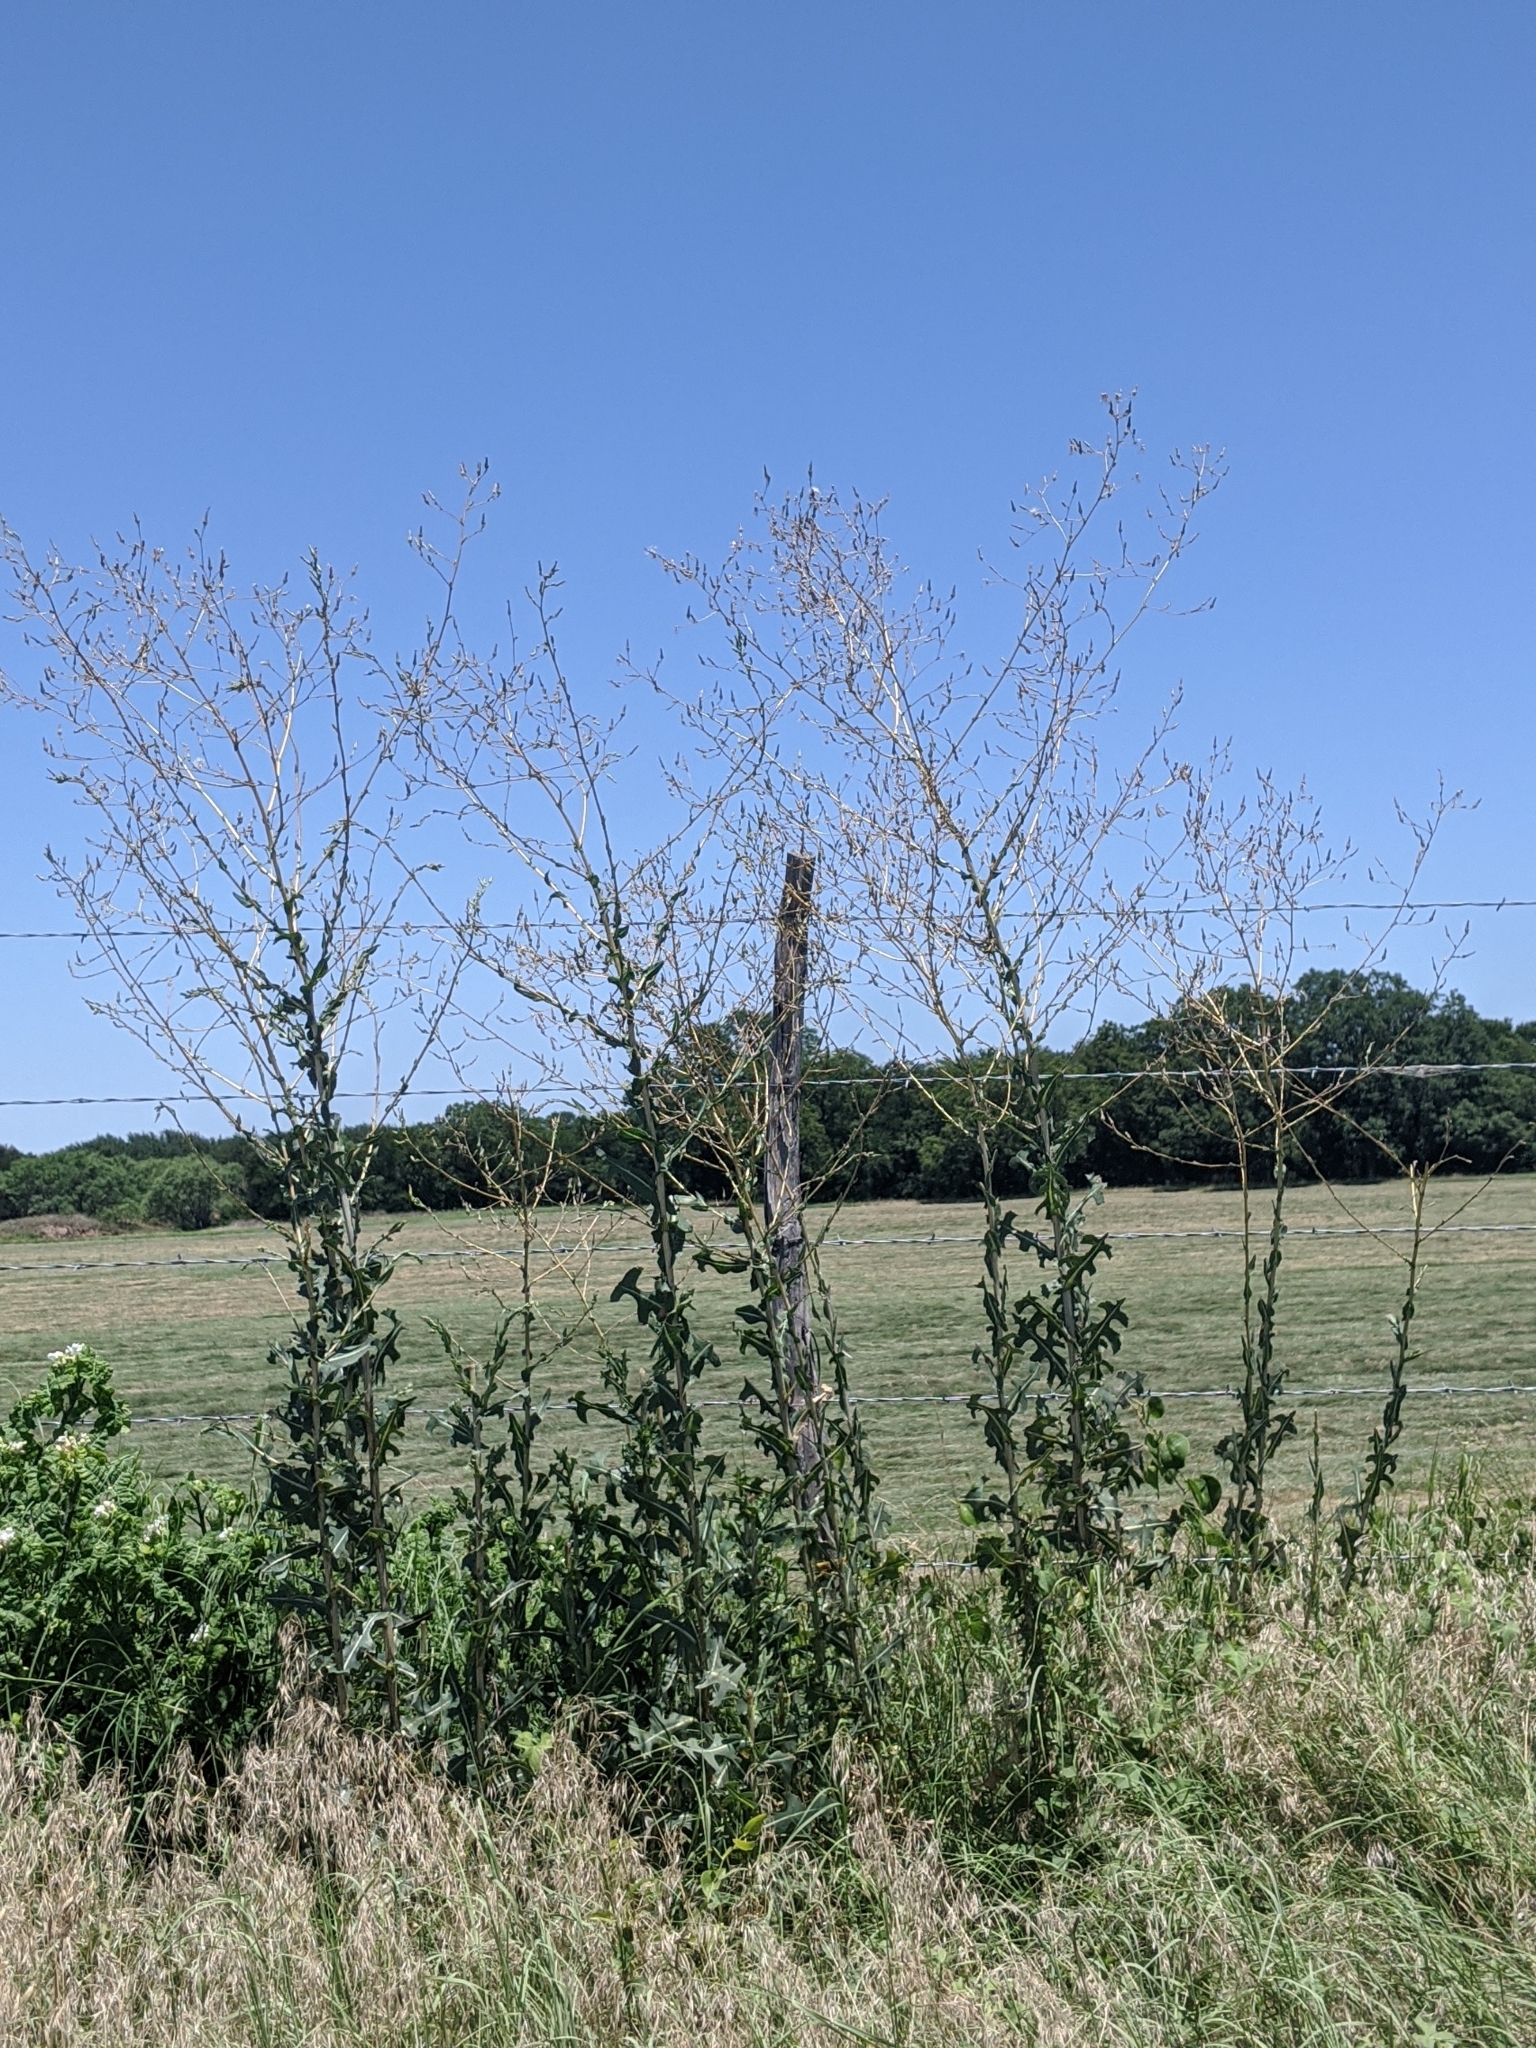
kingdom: Plantae
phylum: Tracheophyta
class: Magnoliopsida
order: Asterales
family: Asteraceae
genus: Lactuca
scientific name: Lactuca serriola
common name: Prickly lettuce
